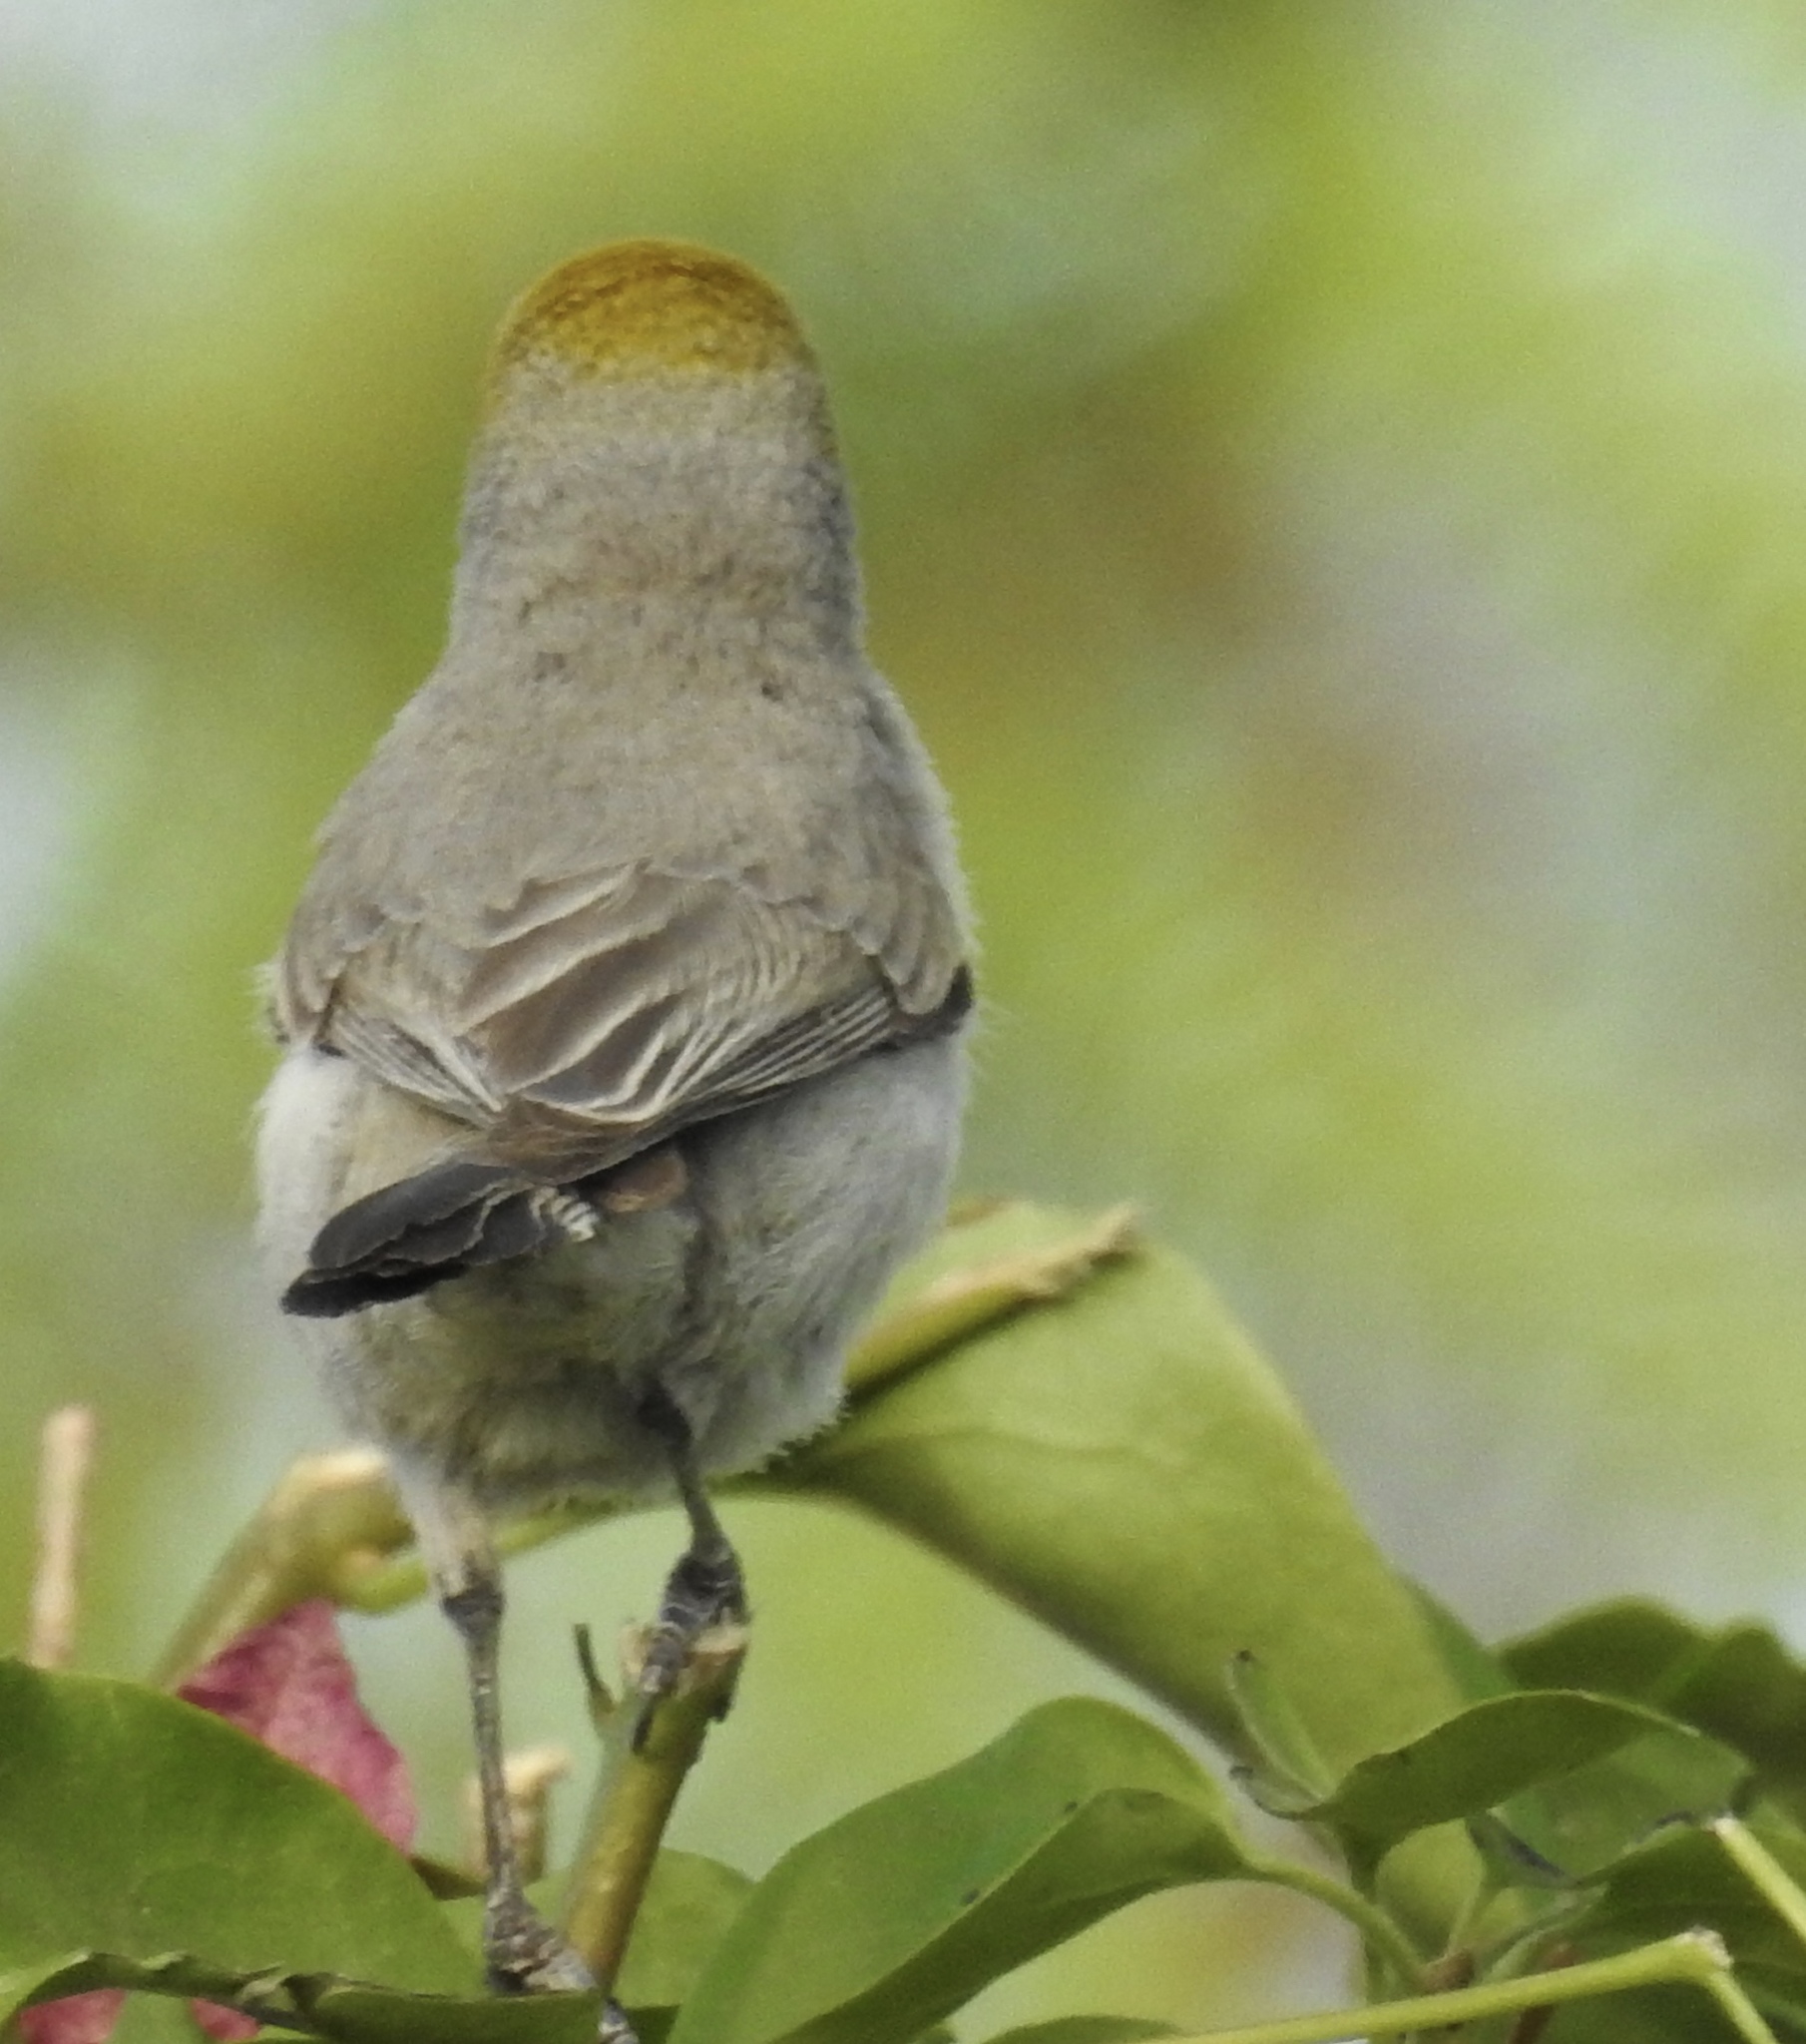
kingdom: Animalia
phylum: Chordata
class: Aves
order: Passeriformes
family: Remizidae
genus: Auriparus
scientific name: Auriparus flaviceps
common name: Verdin
